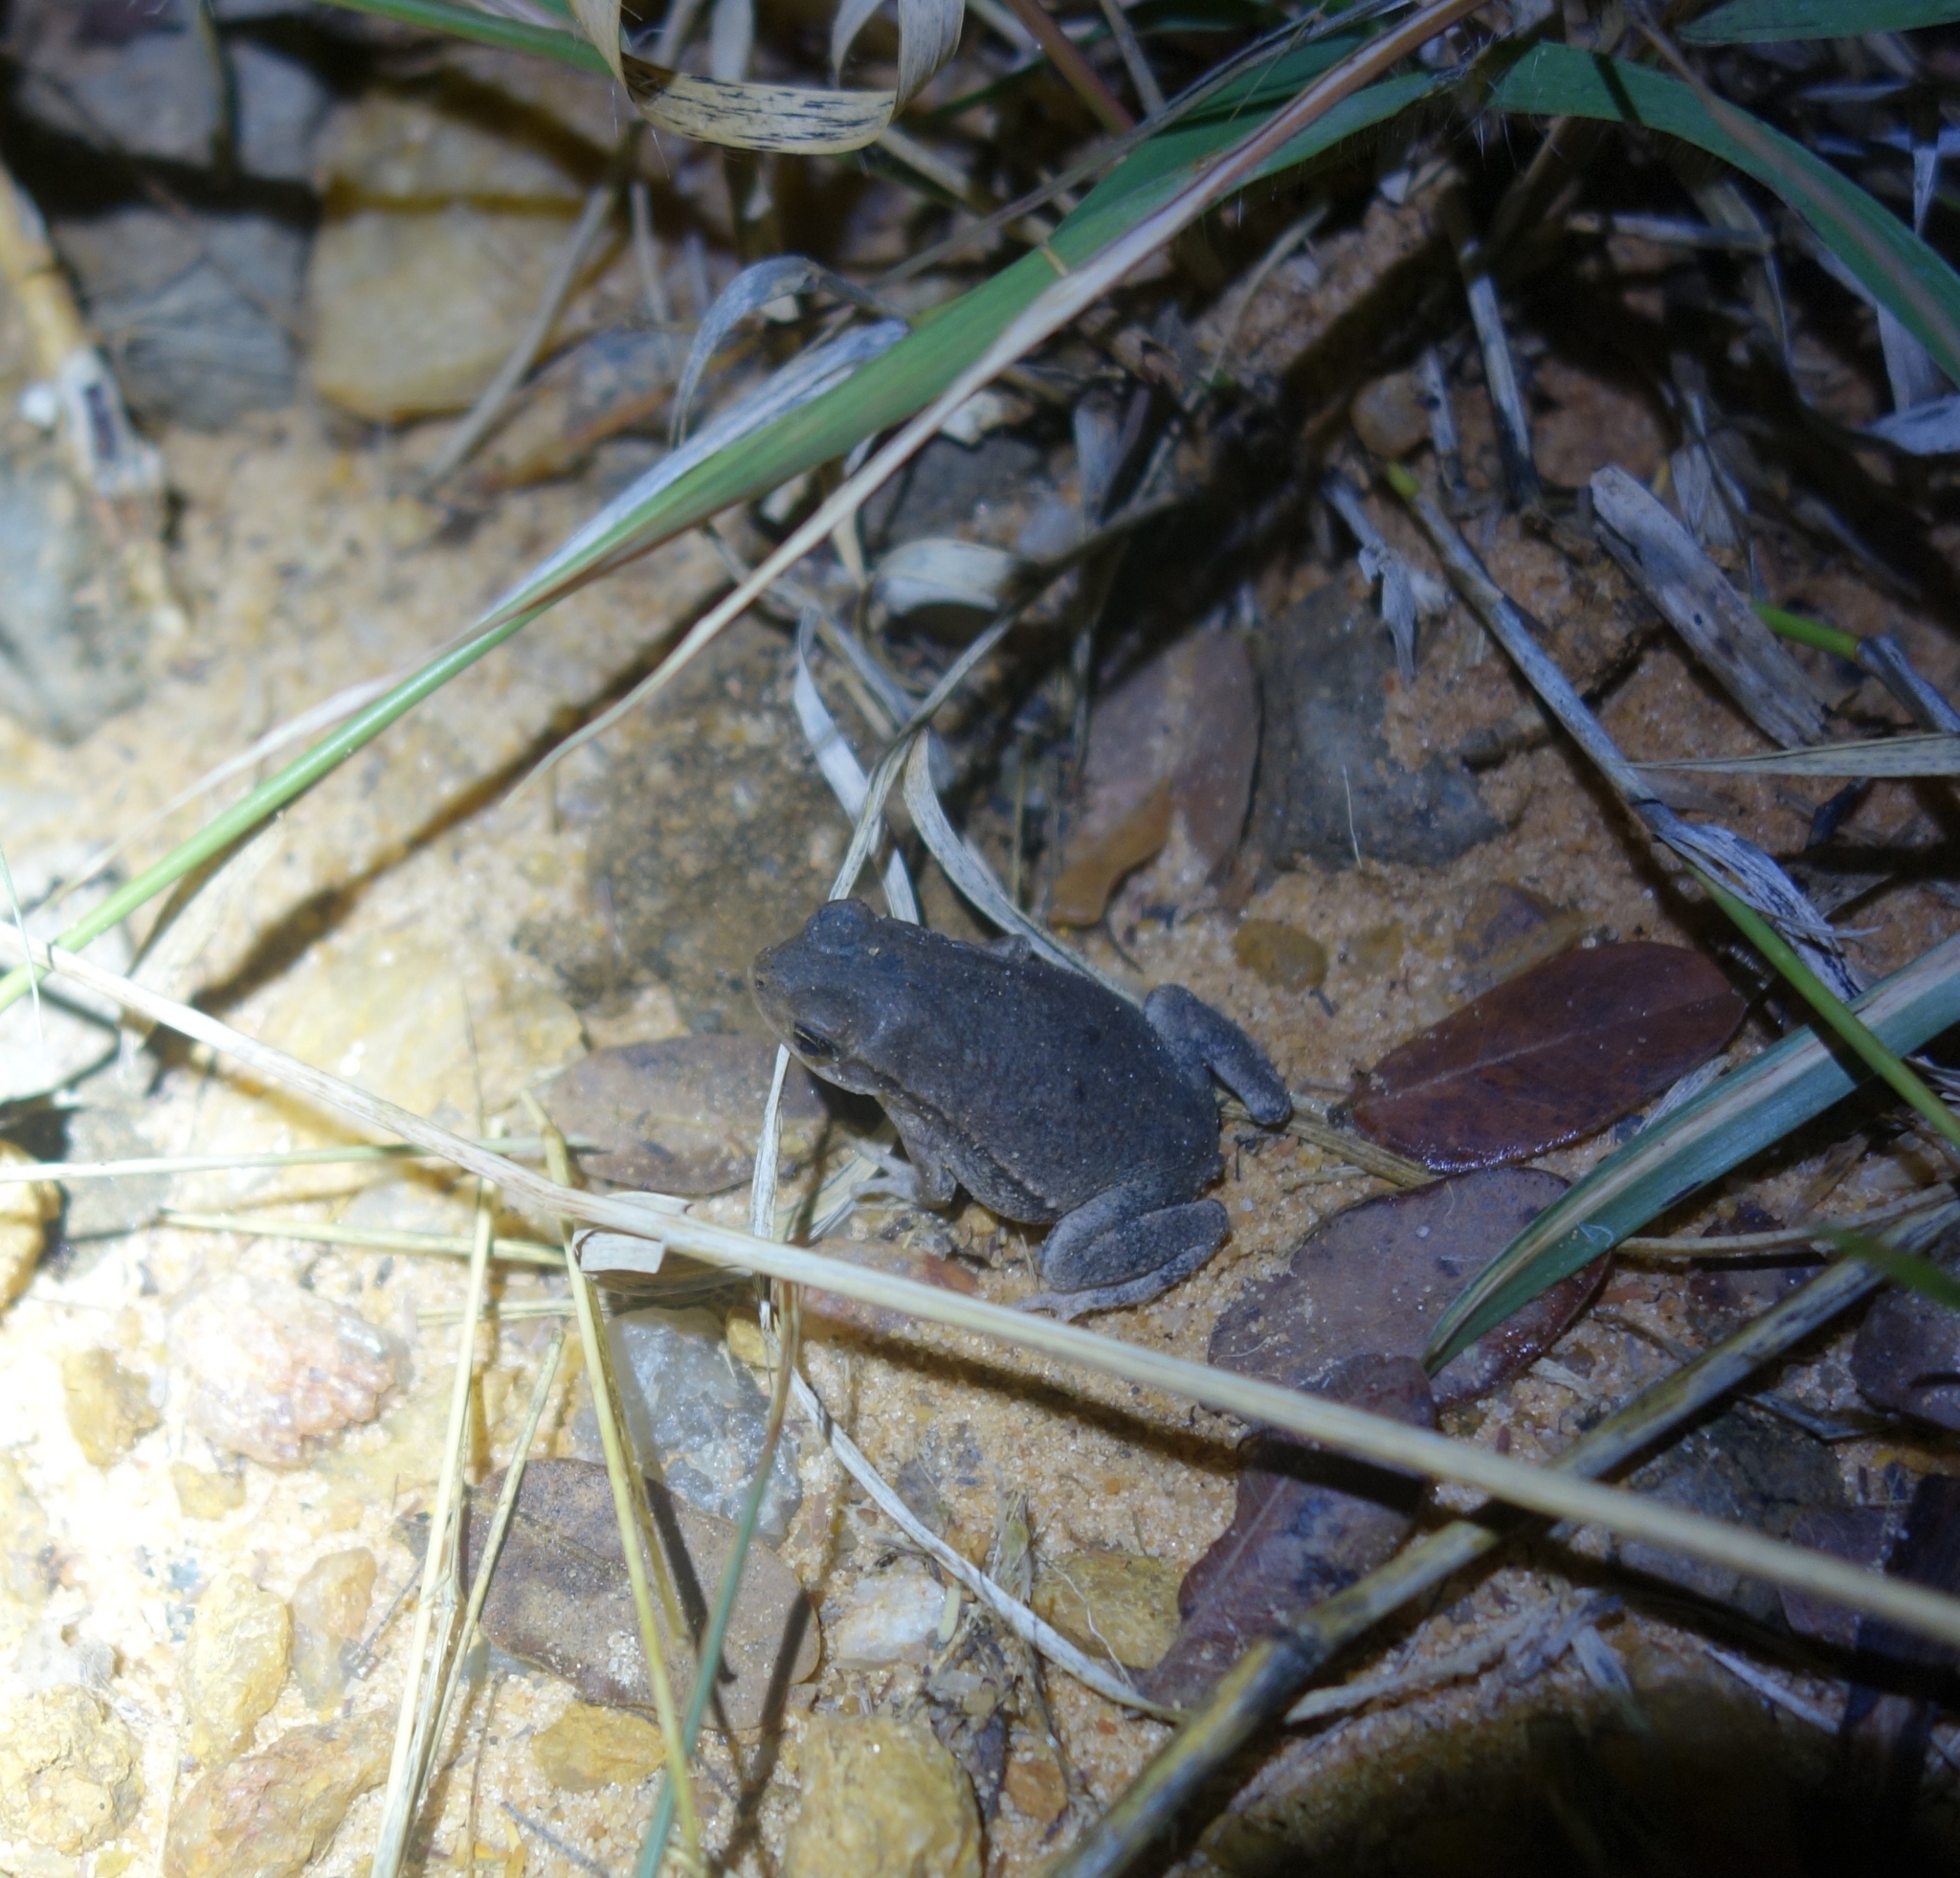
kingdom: Animalia
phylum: Chordata
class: Amphibia
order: Anura
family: Bufonidae
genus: Schismaderma
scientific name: Schismaderma carens
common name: African split-skin toad
